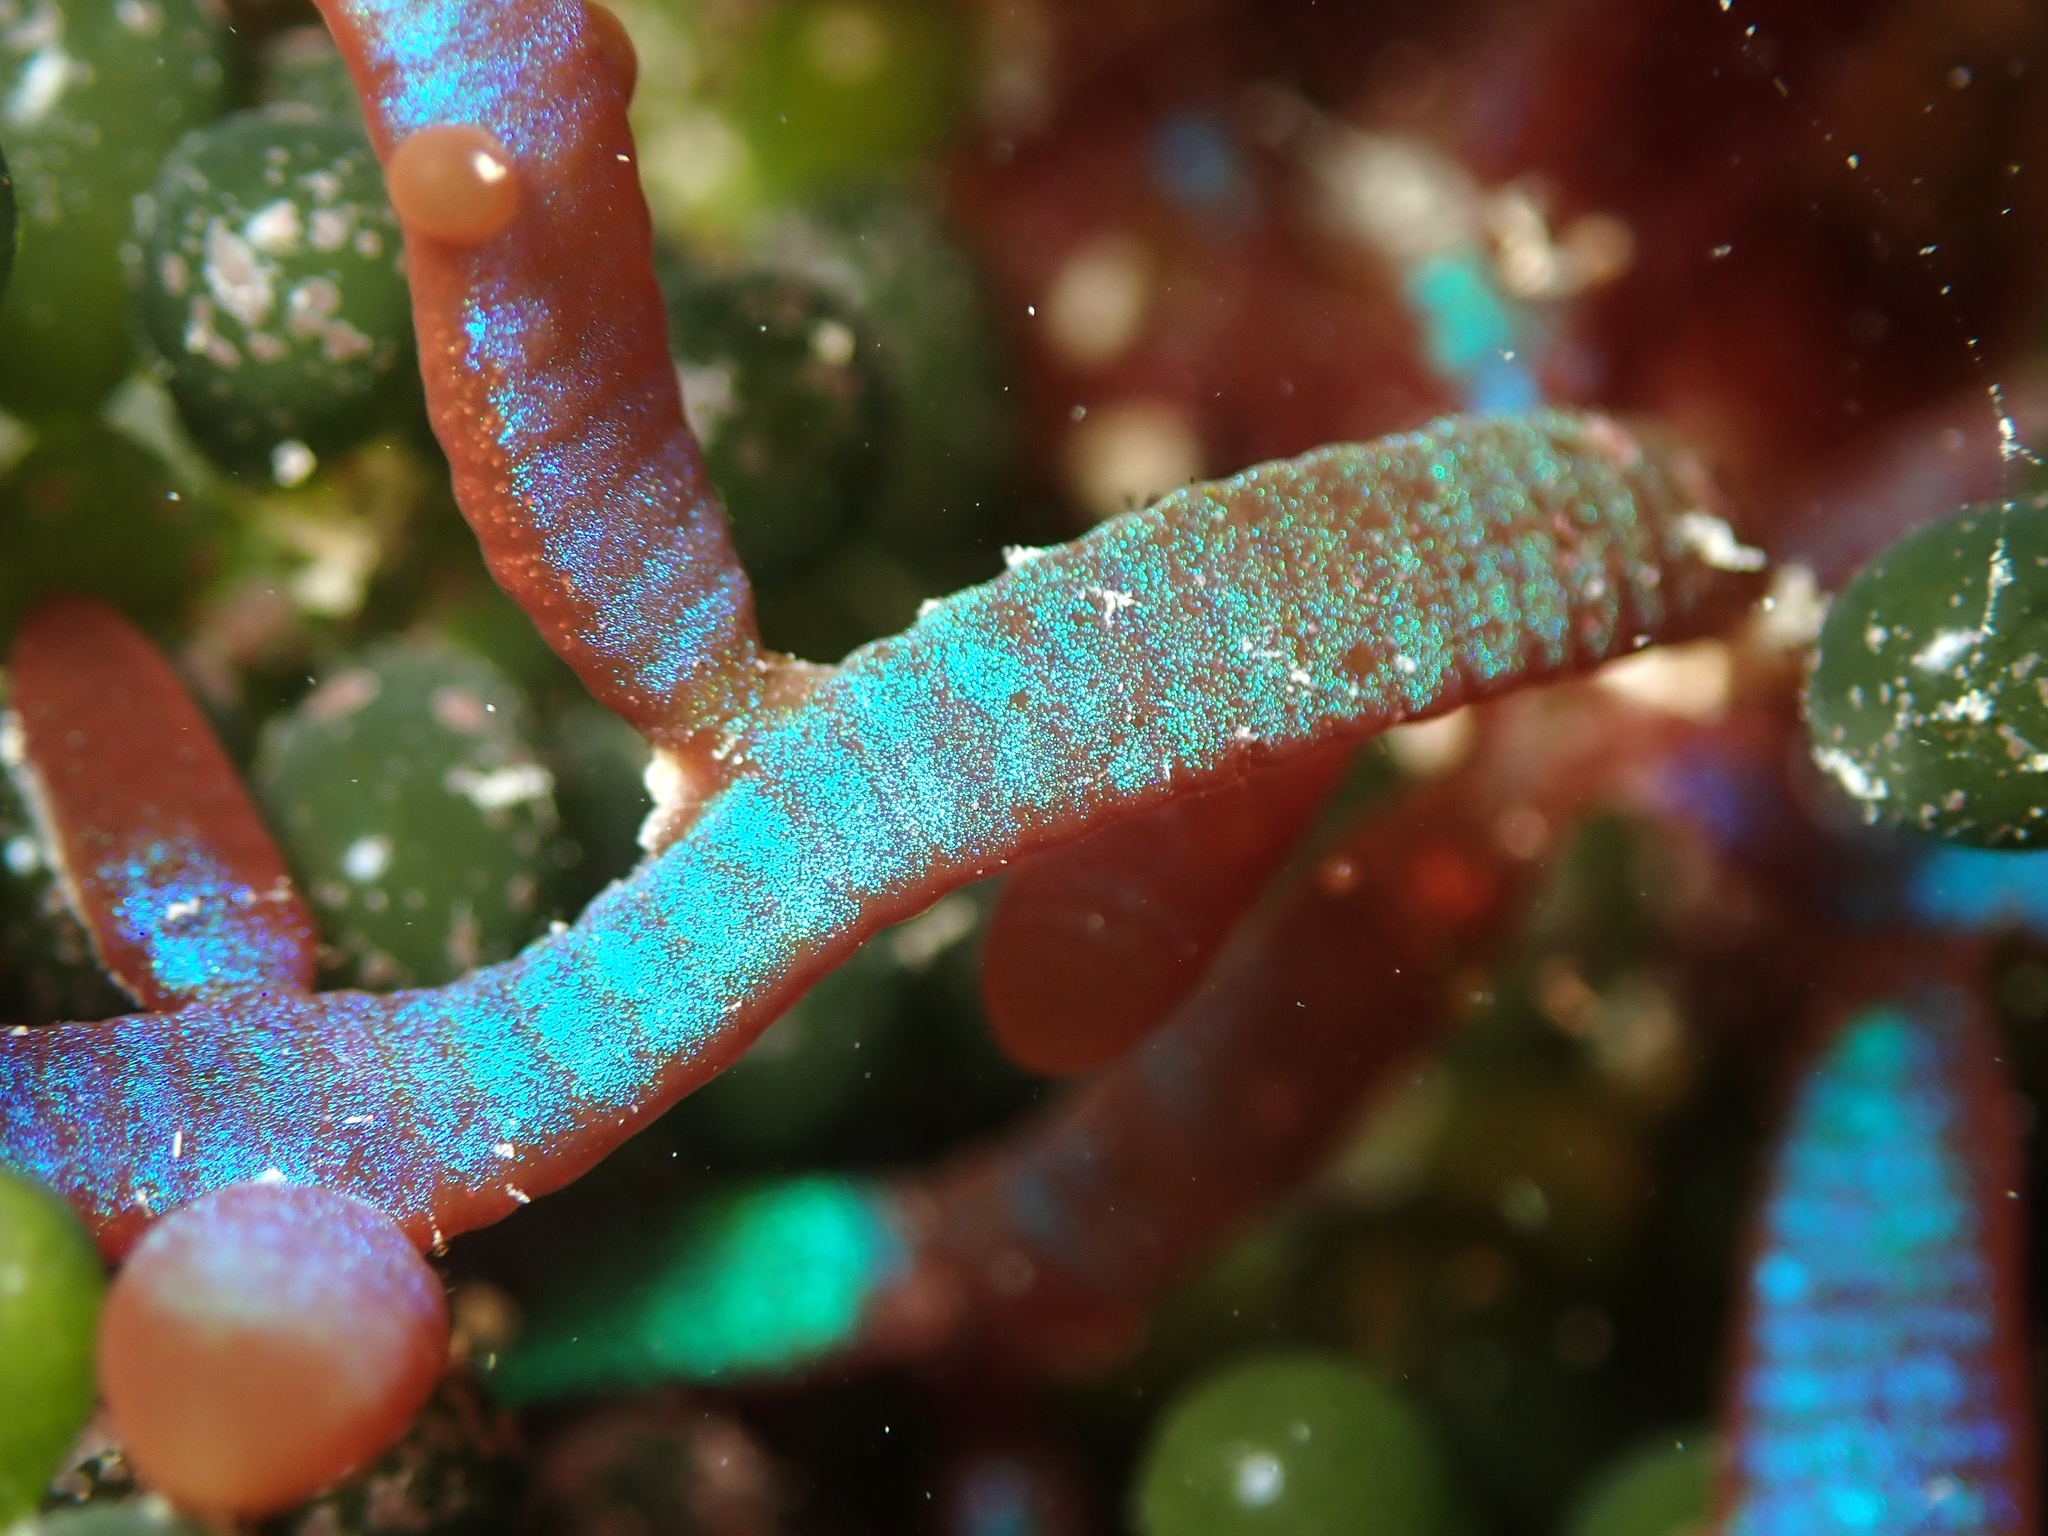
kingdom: Plantae
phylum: Rhodophyta
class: Florideophyceae
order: Rhodymeniales
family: Champiaceae
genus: Champia
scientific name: Champia laingii
